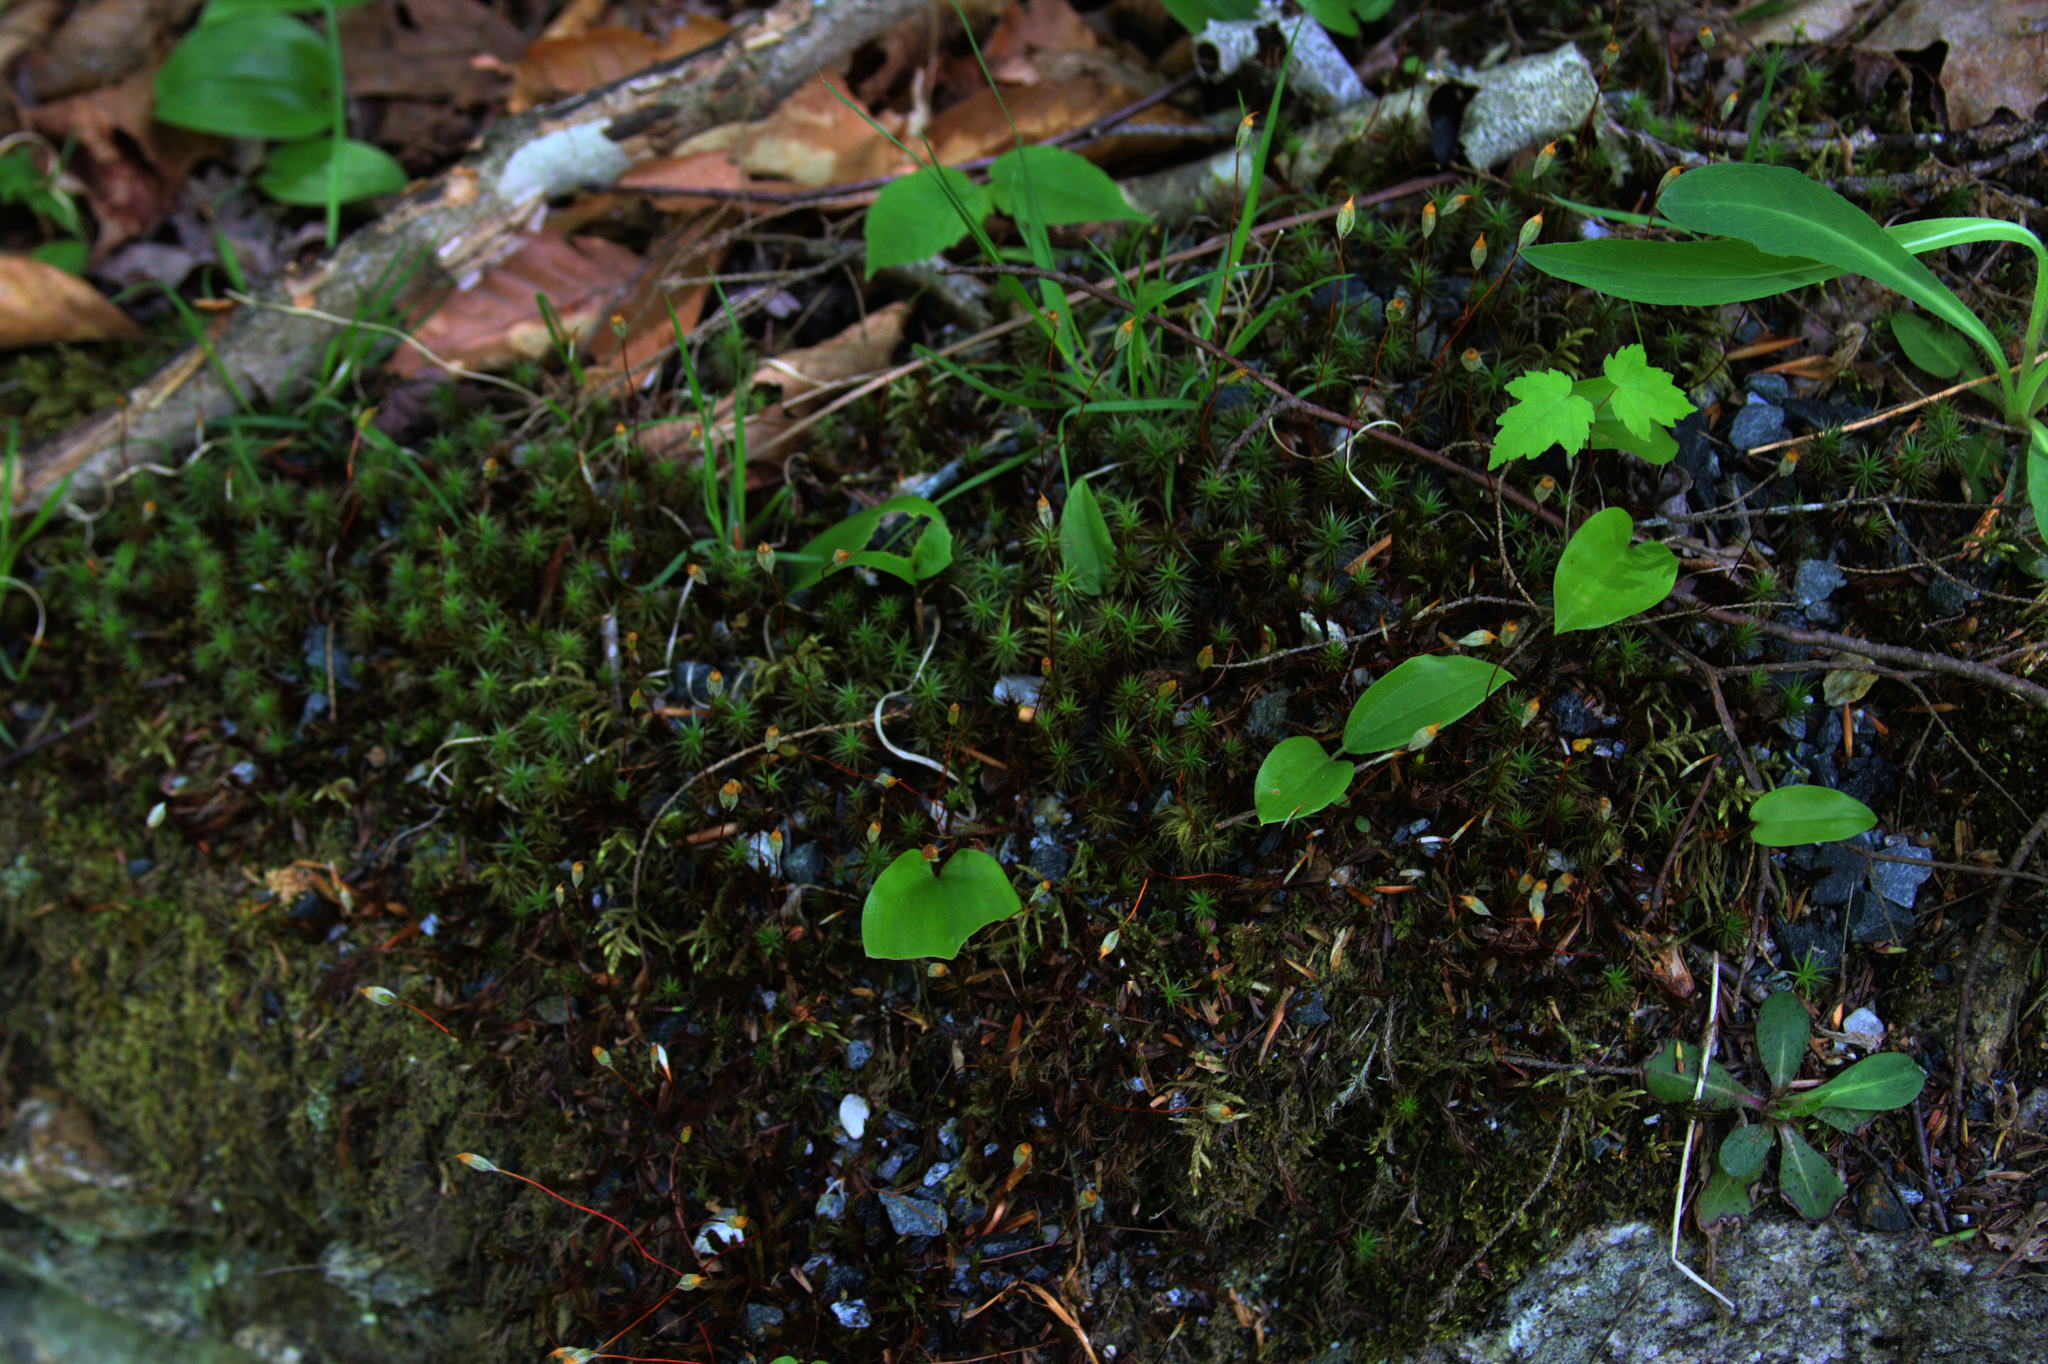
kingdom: Plantae
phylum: Tracheophyta
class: Liliopsida
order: Asparagales
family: Asparagaceae
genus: Maianthemum
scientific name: Maianthemum canadense
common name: False lily-of-the-valley
